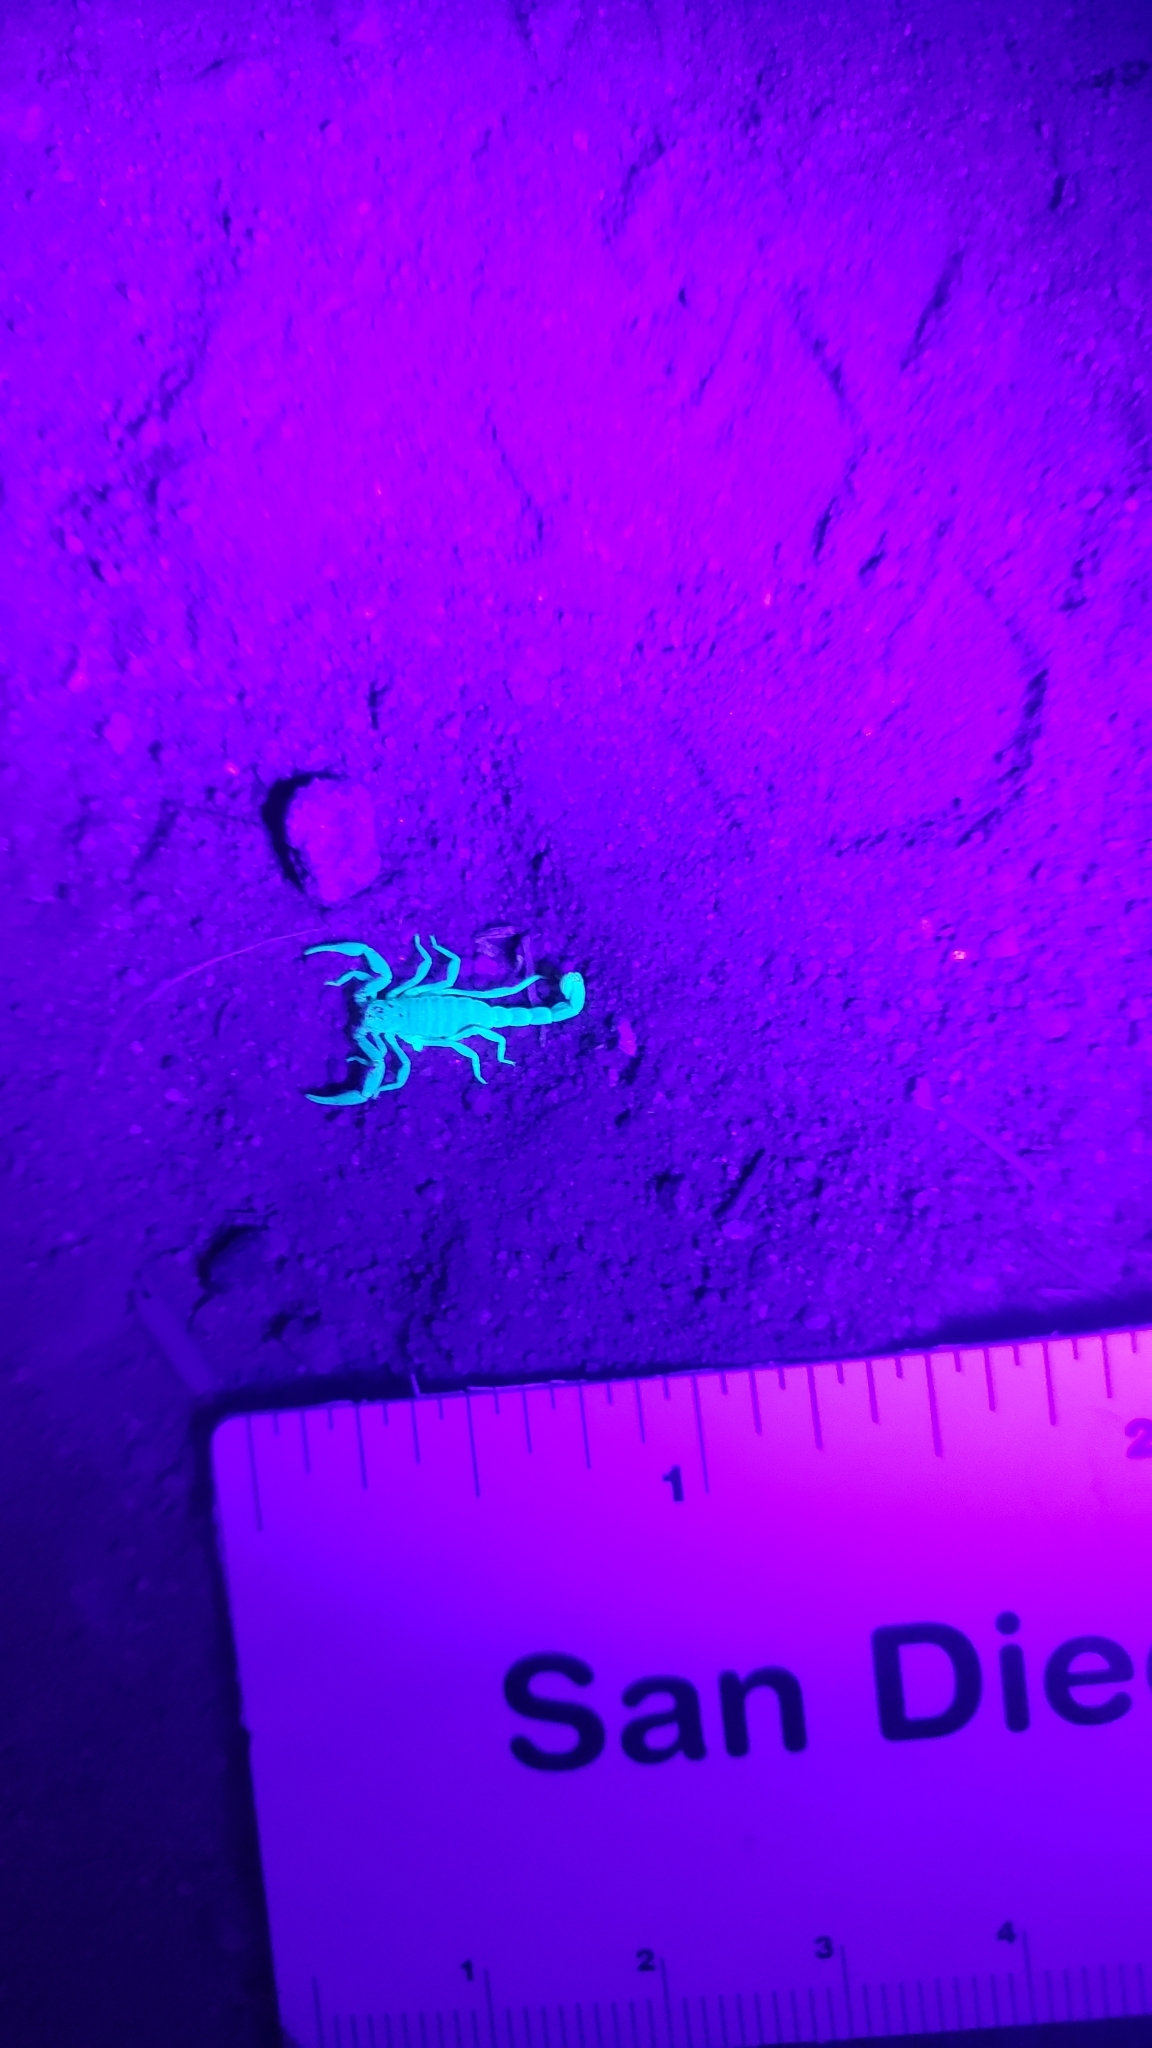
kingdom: Animalia
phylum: Arthropoda
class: Arachnida
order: Scorpiones
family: Vaejovidae
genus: Paruroctonus
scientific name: Paruroctonus silvestrii
